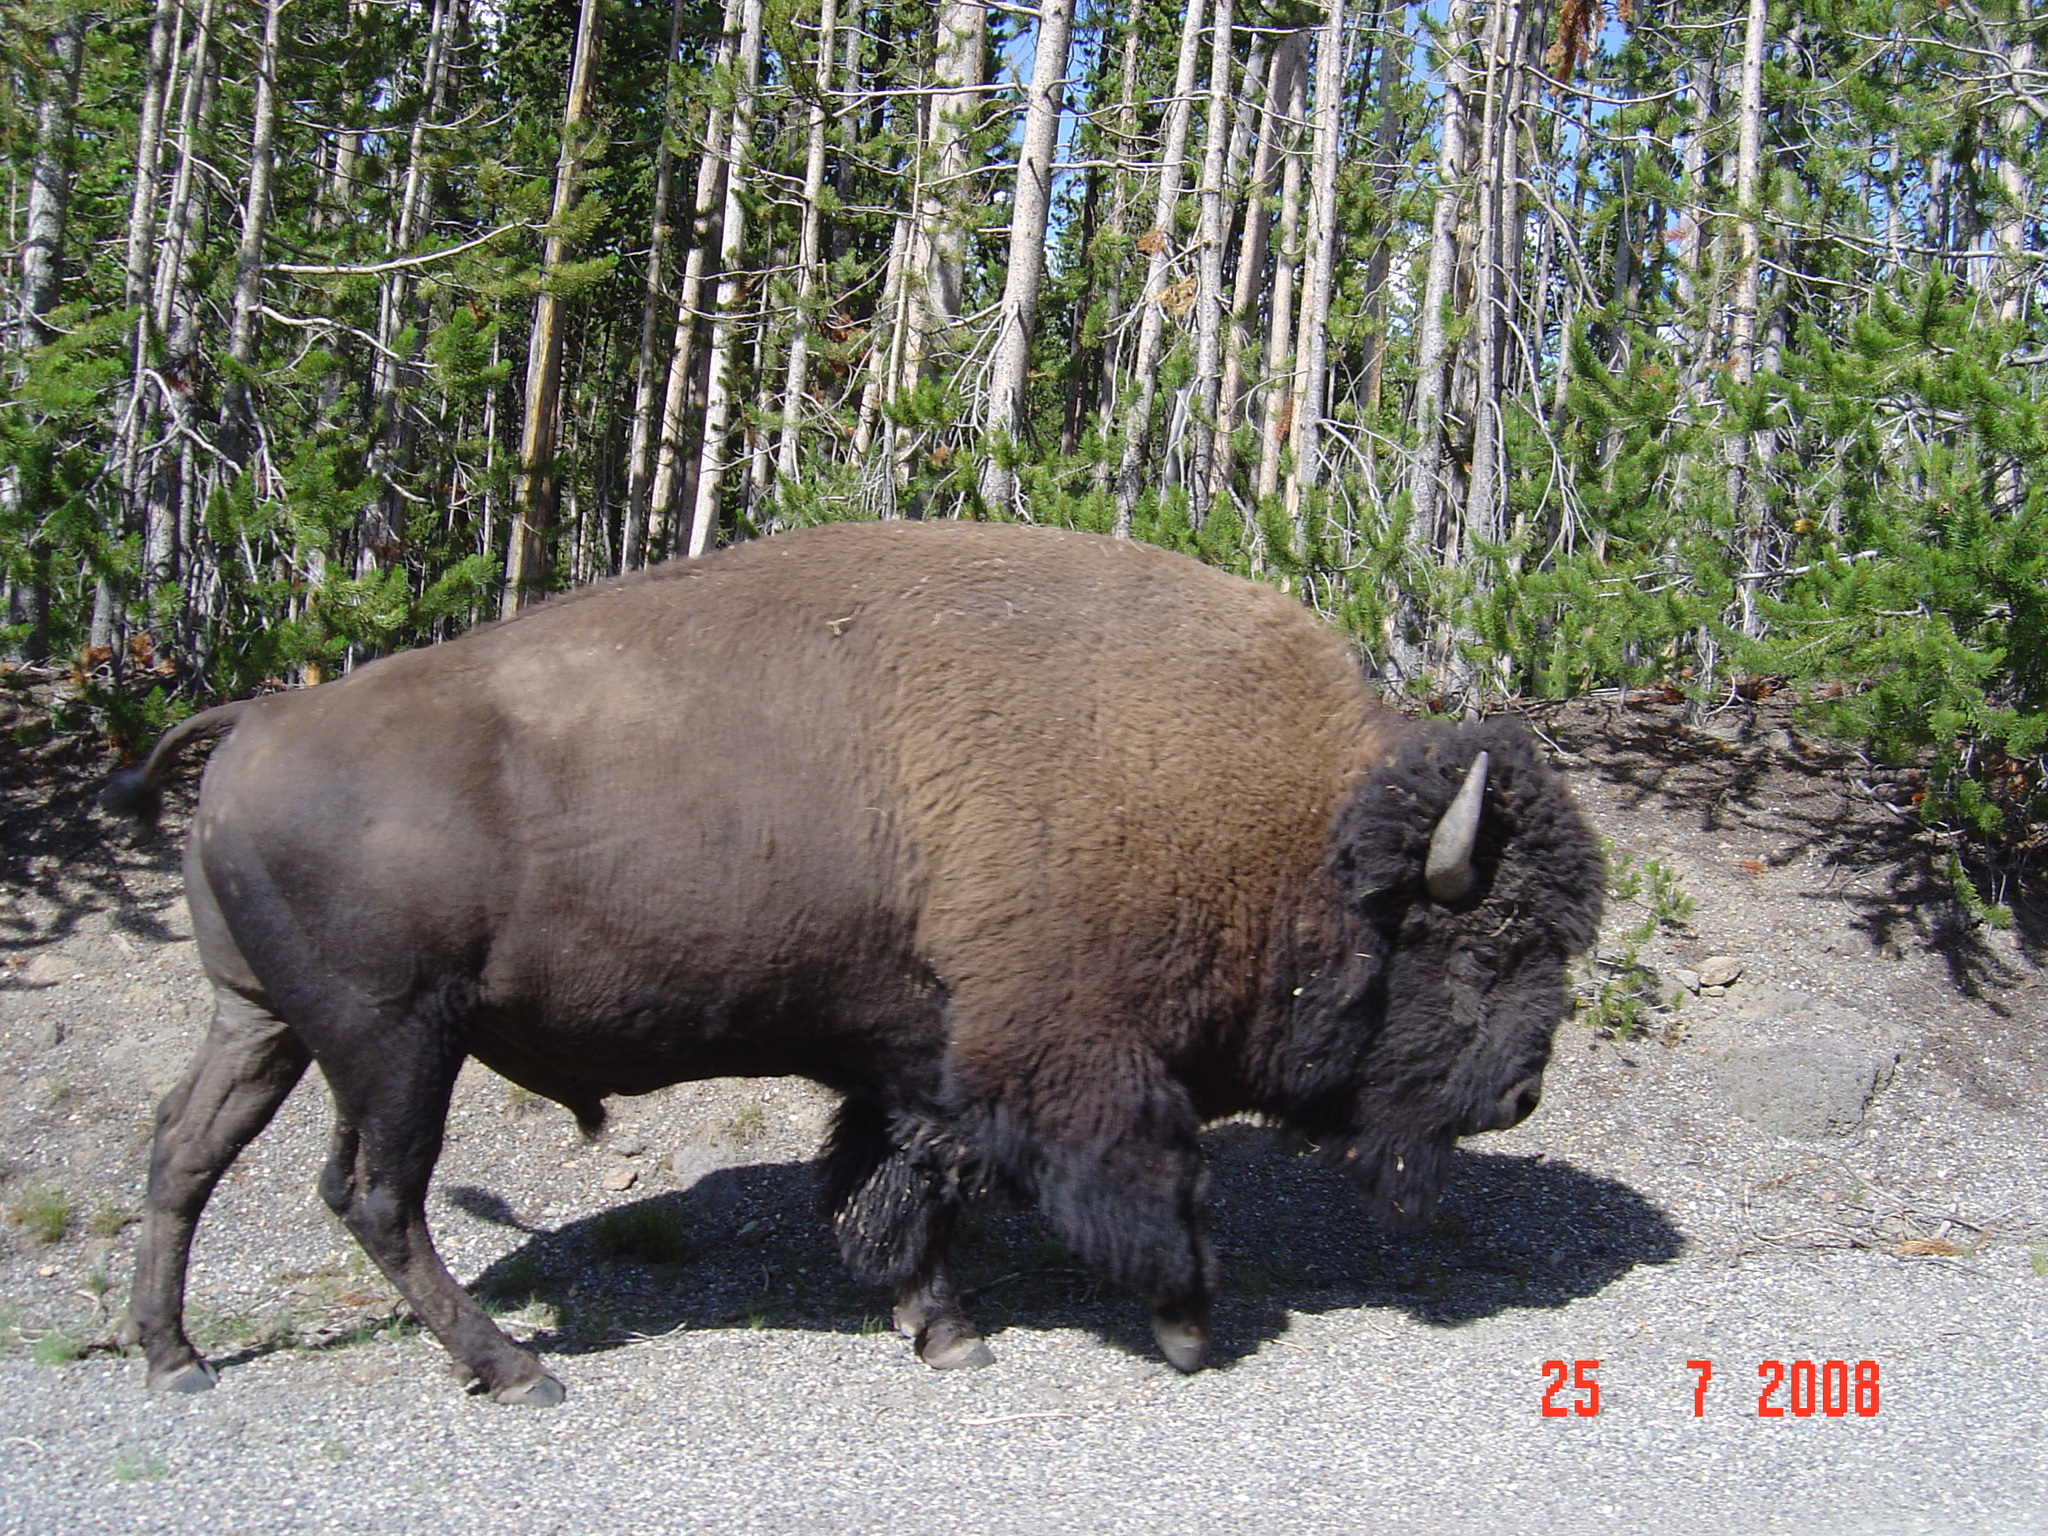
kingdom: Animalia
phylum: Chordata
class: Mammalia
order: Artiodactyla
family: Bovidae
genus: Bison
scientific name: Bison bison
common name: American bison
